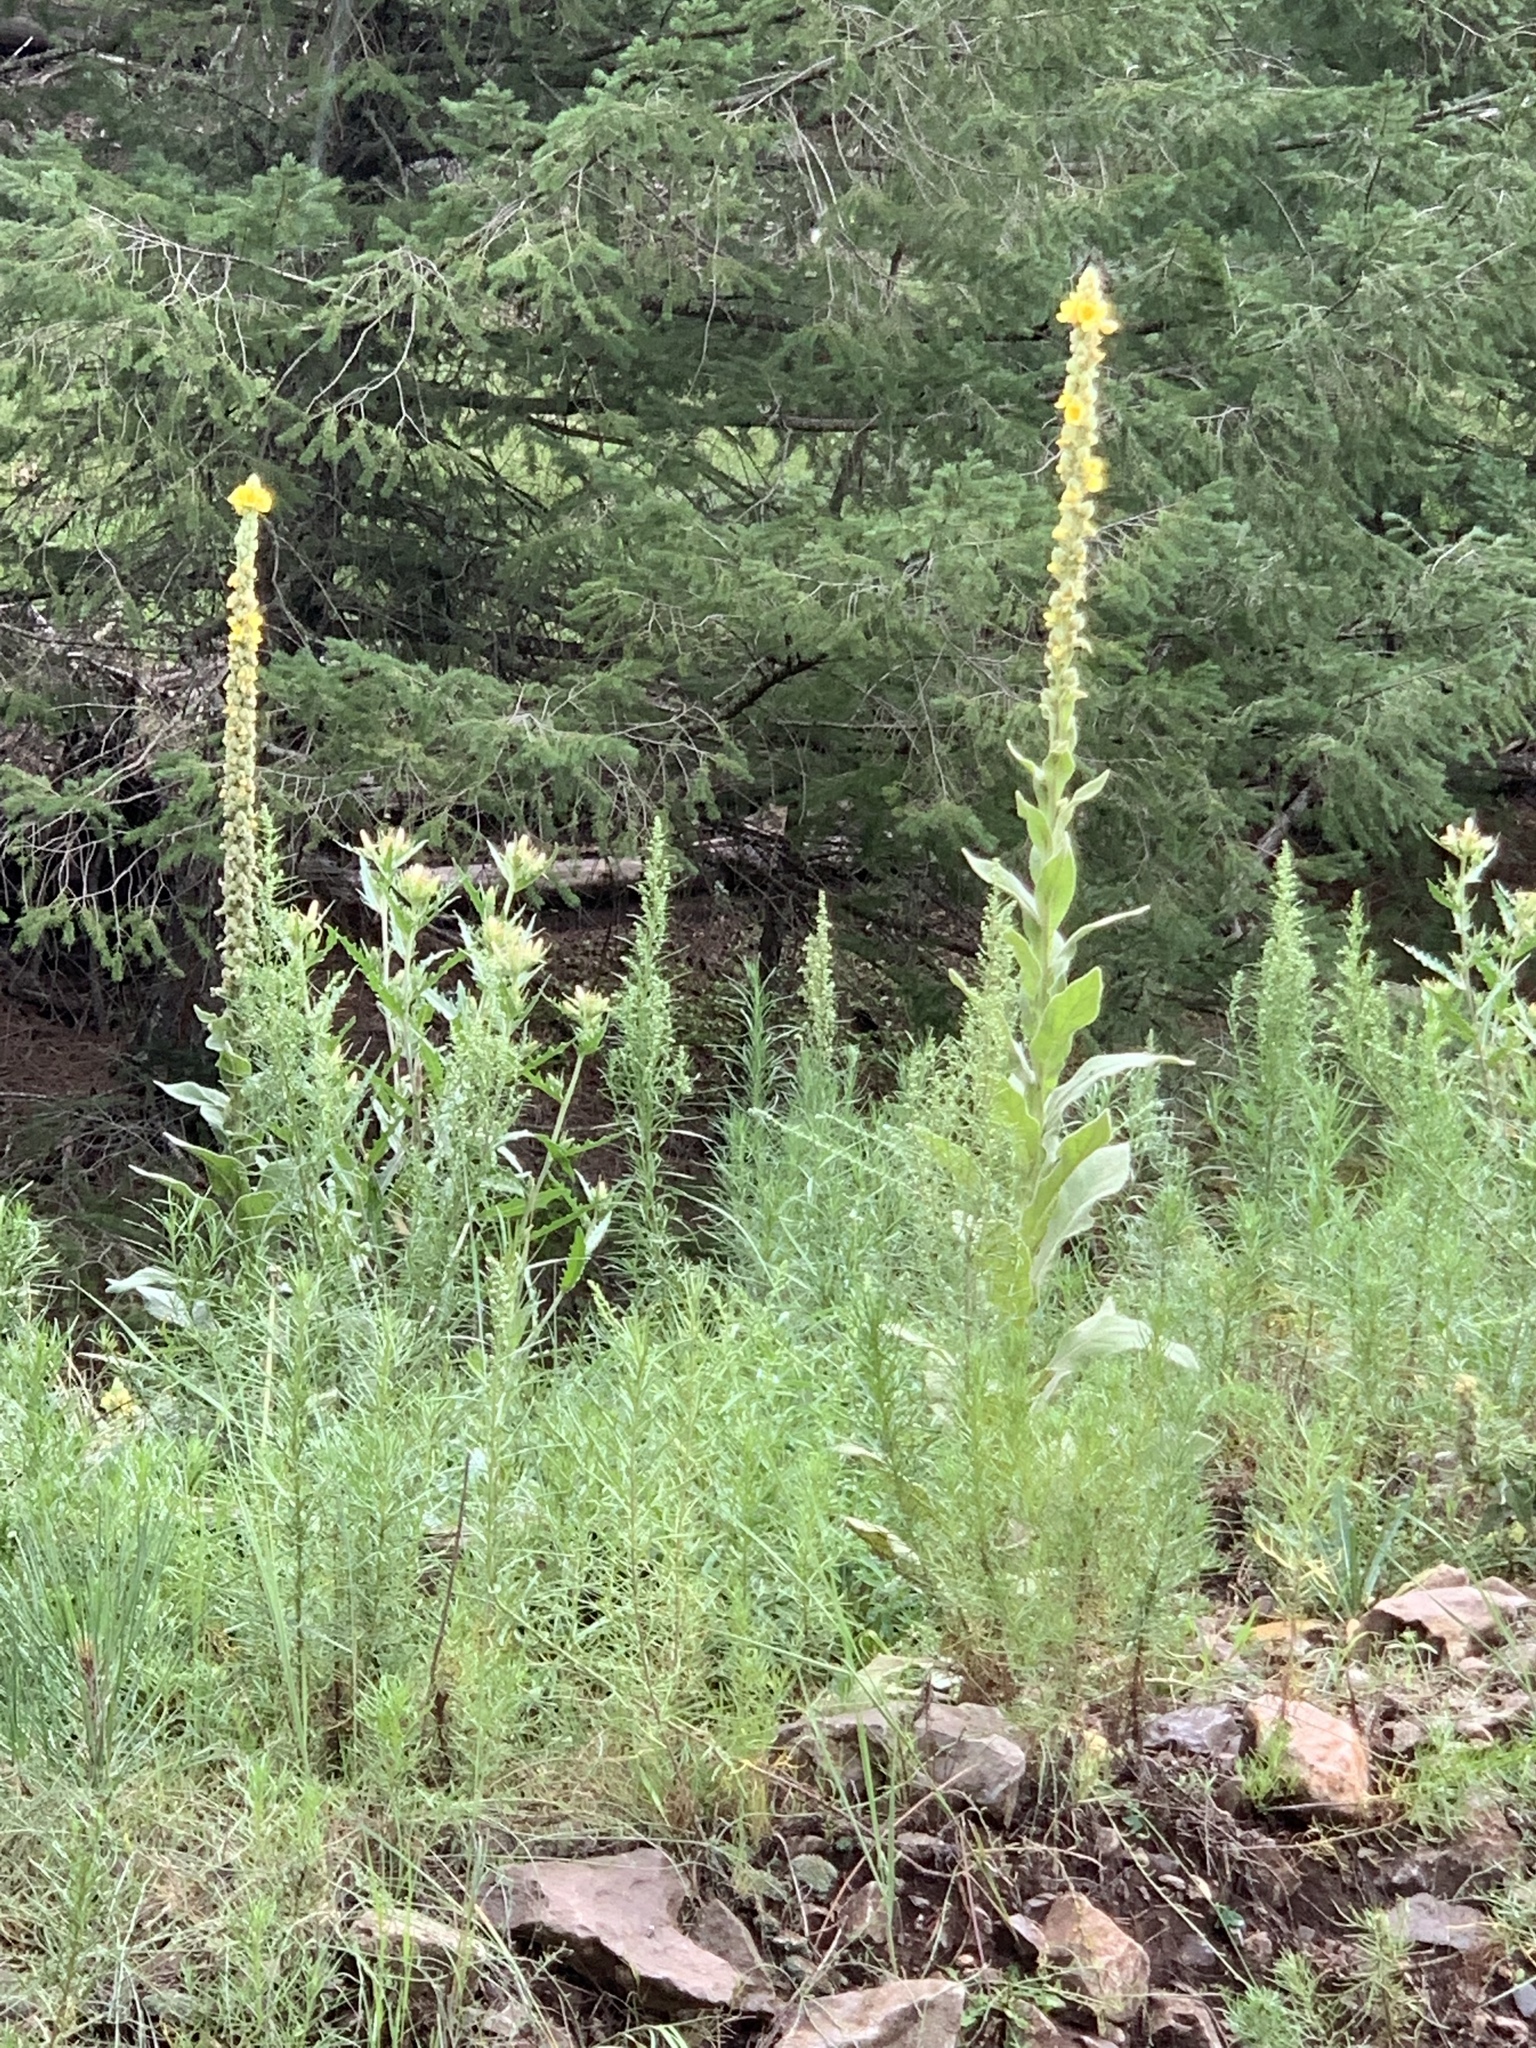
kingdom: Plantae
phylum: Tracheophyta
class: Magnoliopsida
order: Lamiales
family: Scrophulariaceae
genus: Verbascum
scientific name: Verbascum thapsus
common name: Common mullein
